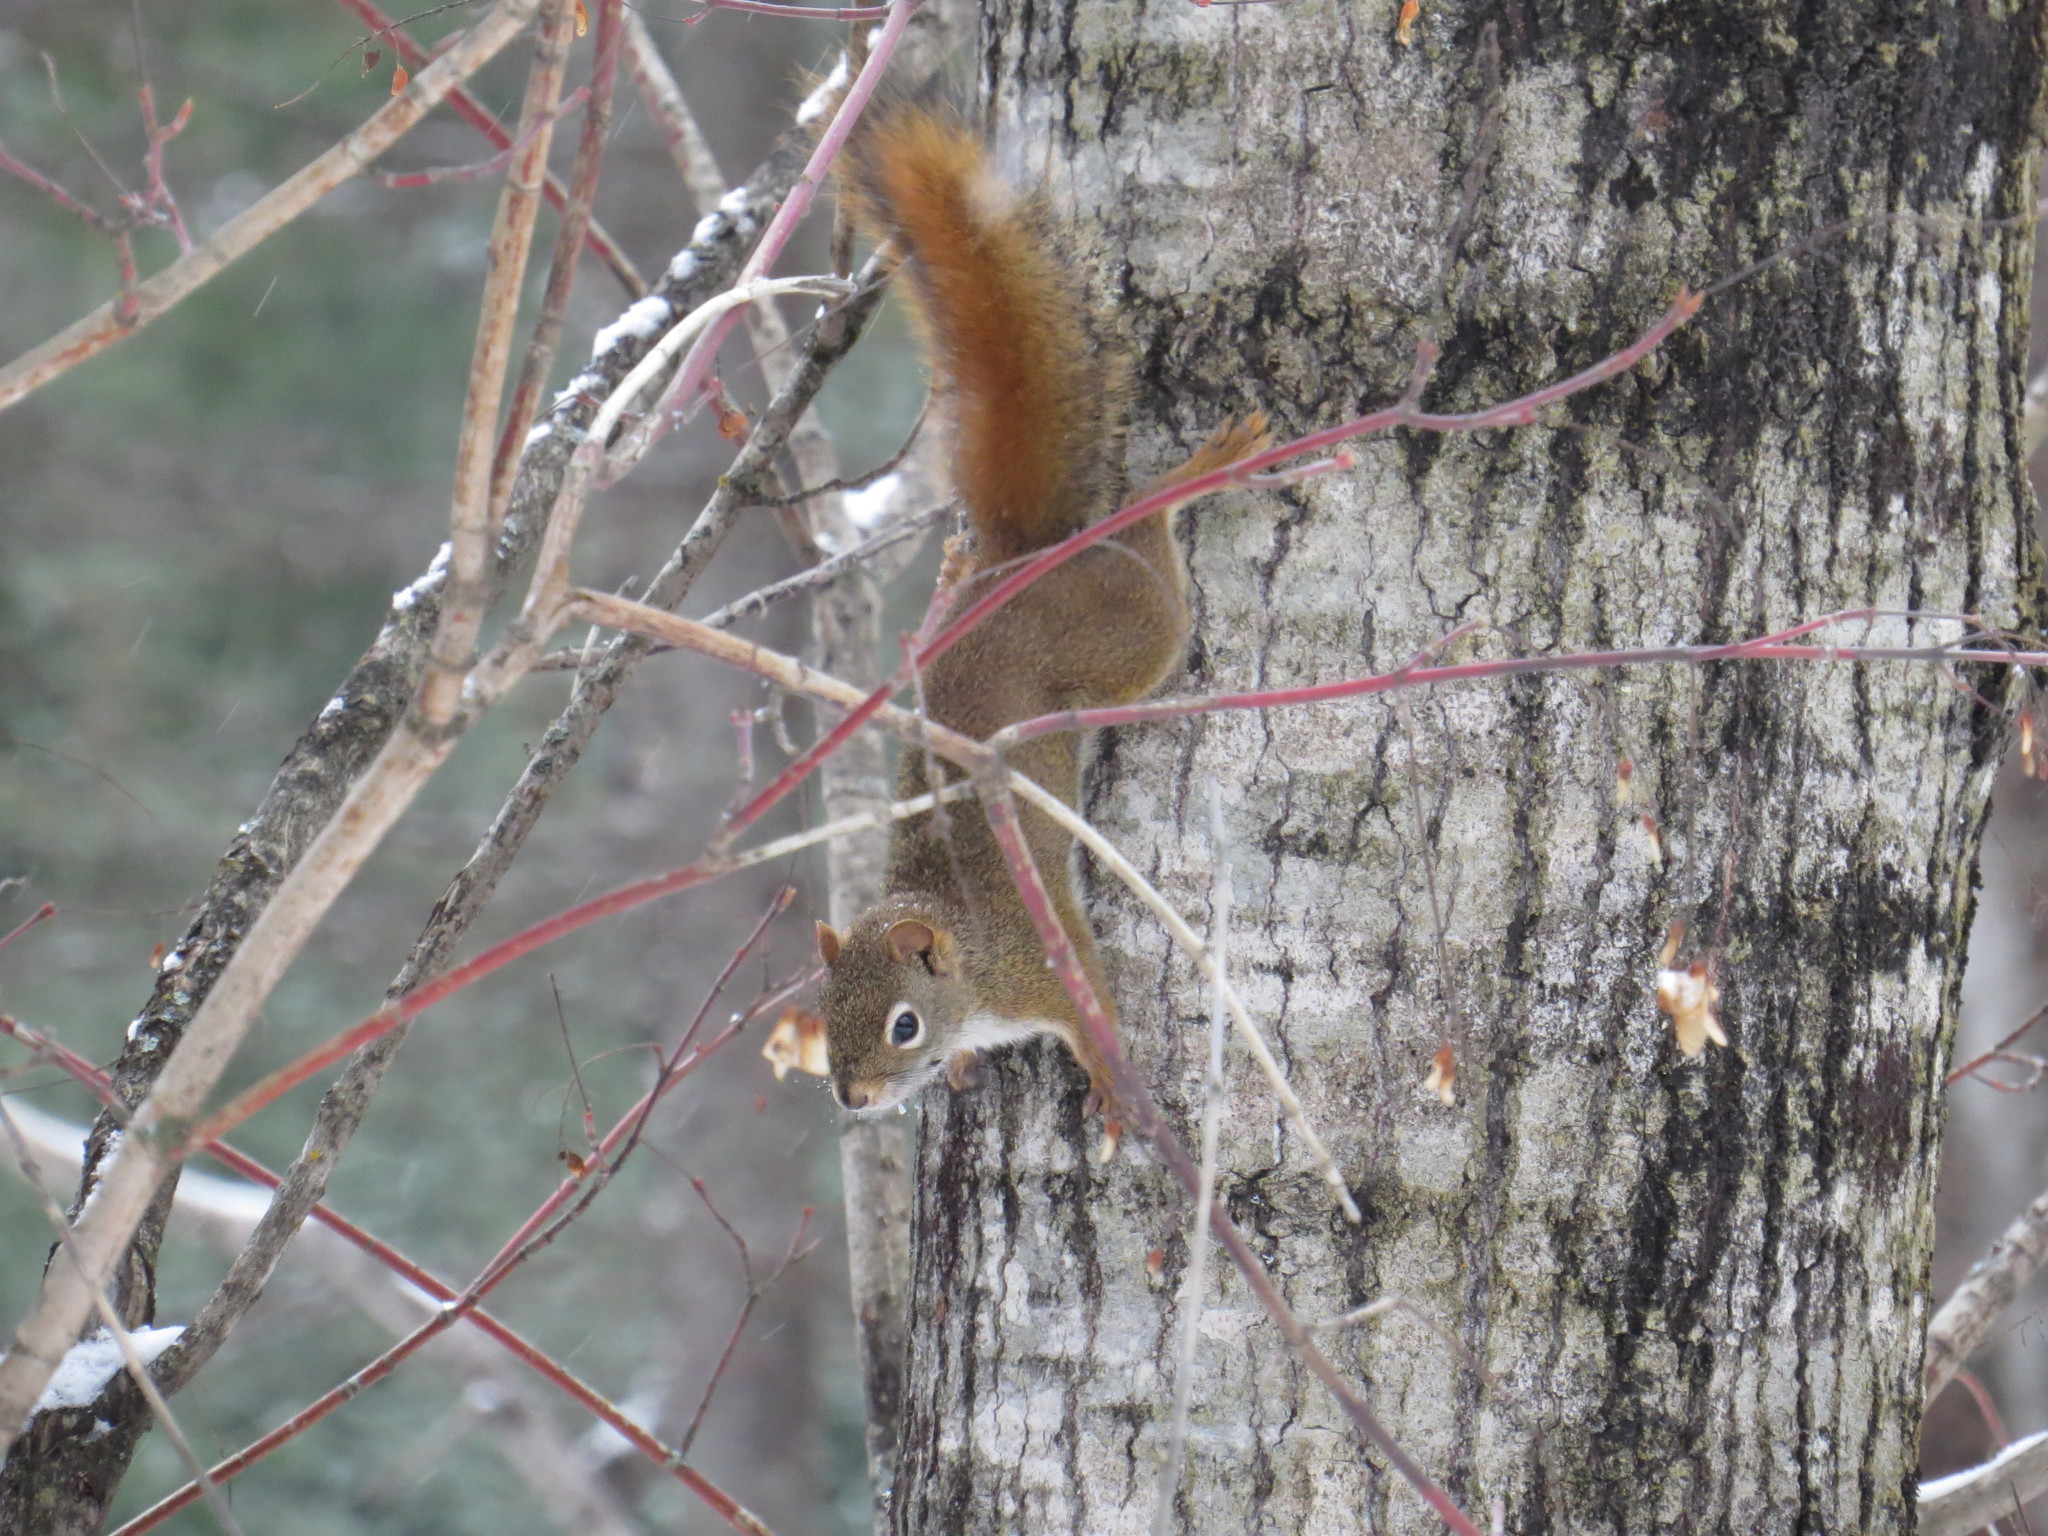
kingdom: Animalia
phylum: Chordata
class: Mammalia
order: Rodentia
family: Sciuridae
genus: Tamiasciurus
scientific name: Tamiasciurus hudsonicus
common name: Red squirrel
